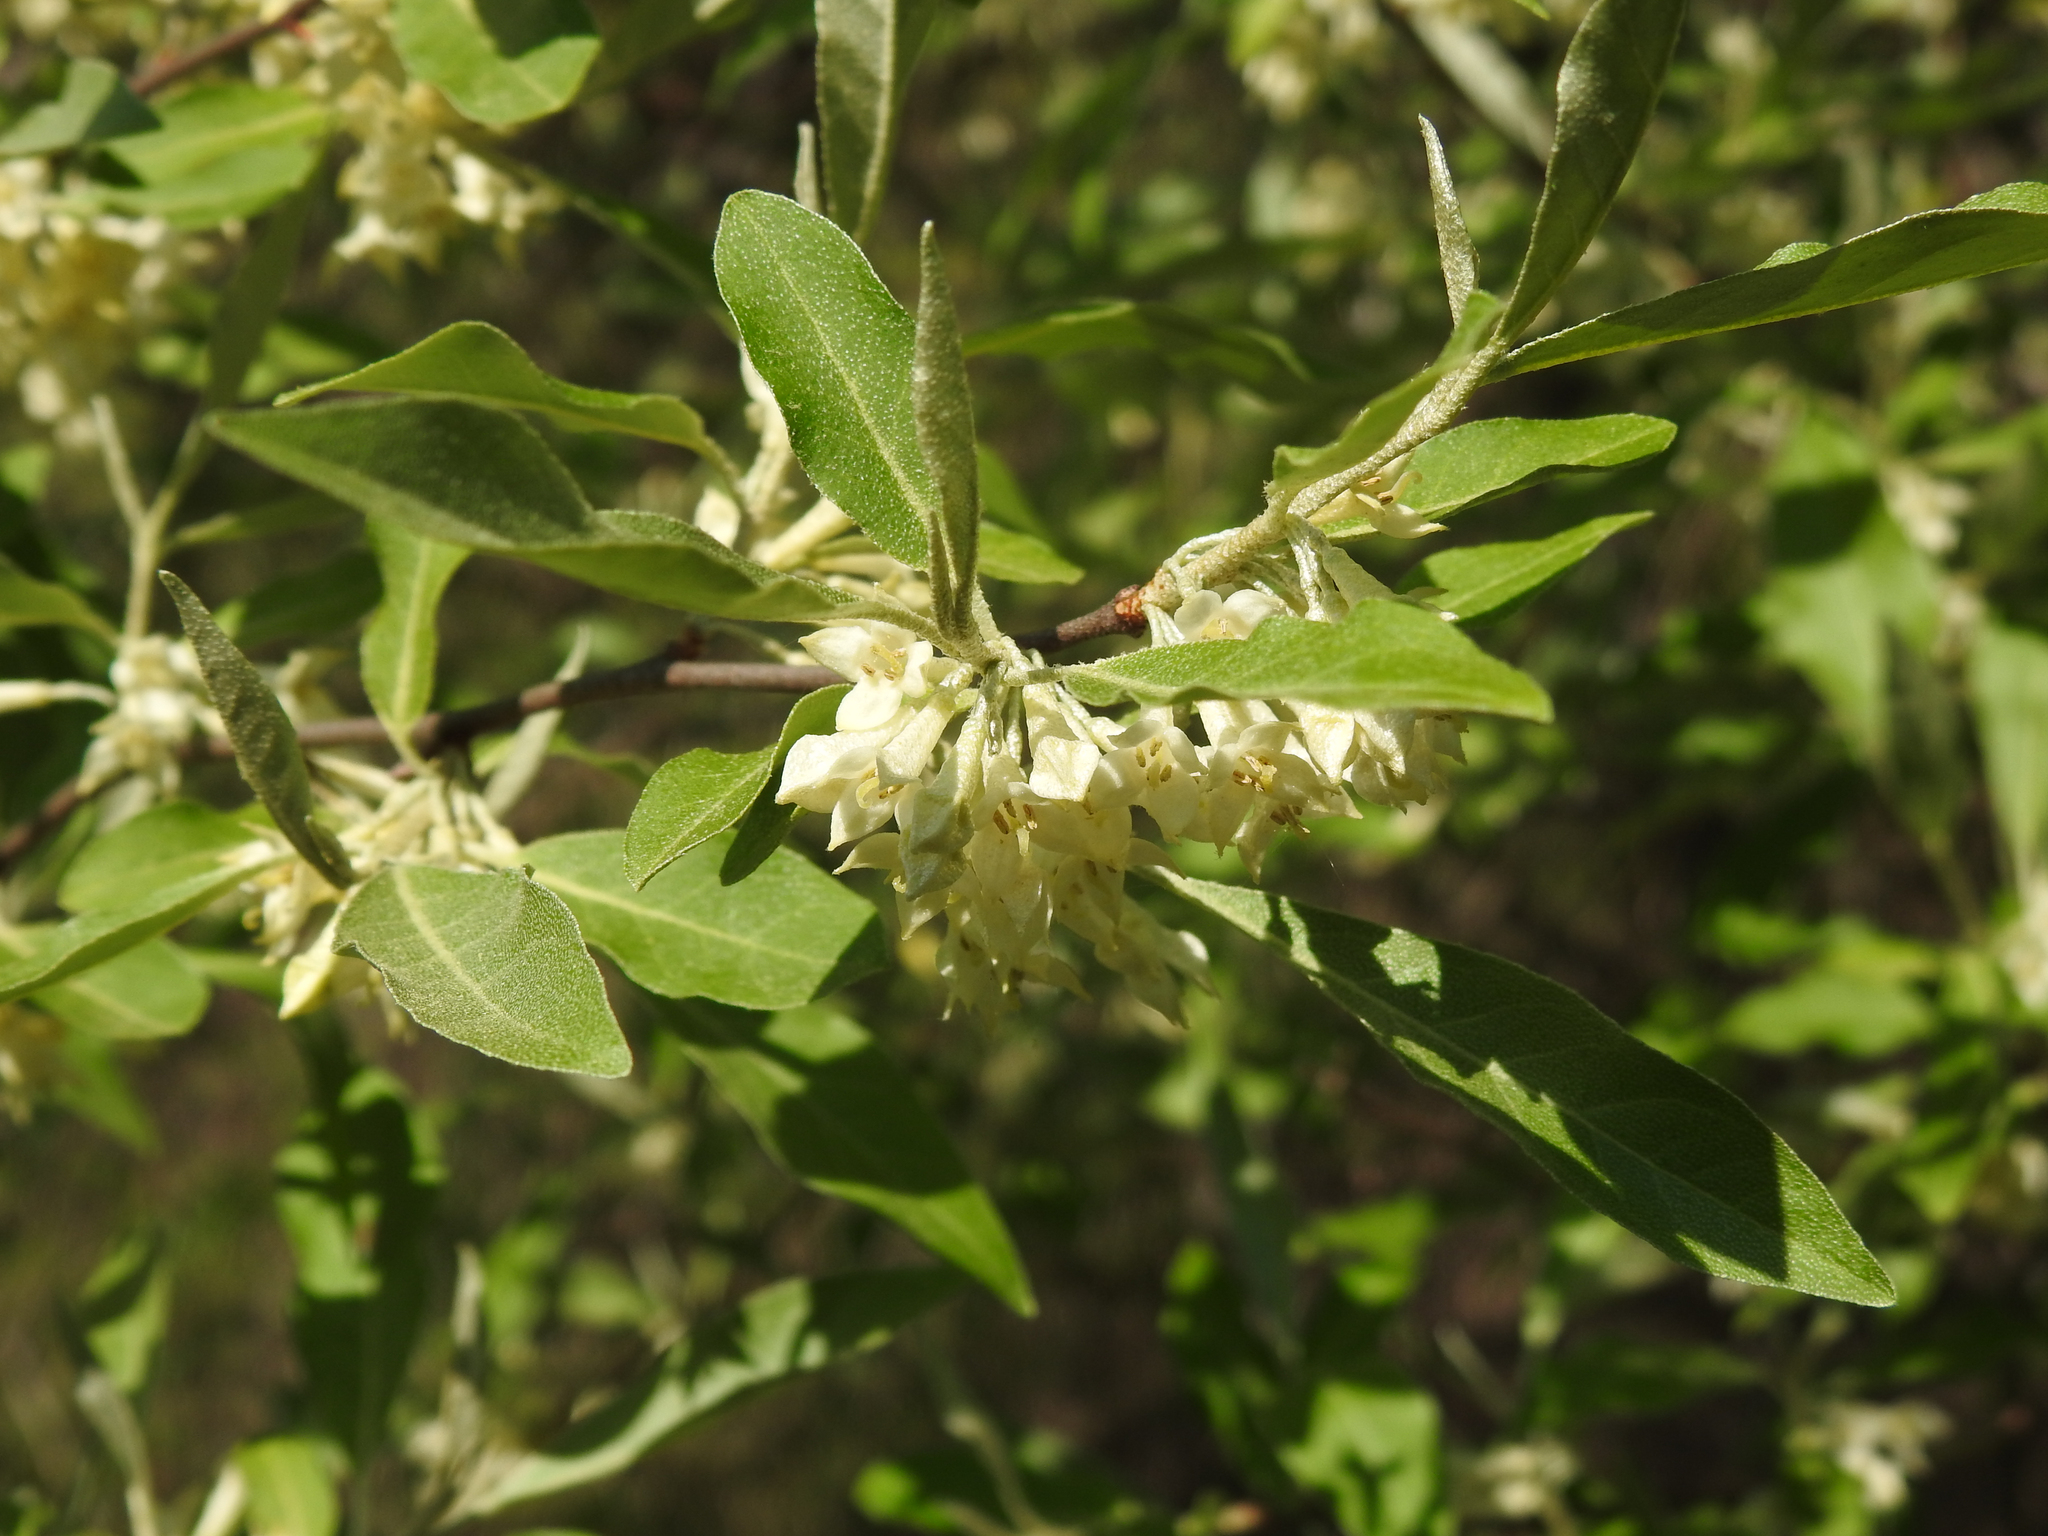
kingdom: Plantae
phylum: Tracheophyta
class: Magnoliopsida
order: Rosales
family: Elaeagnaceae
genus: Elaeagnus
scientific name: Elaeagnus umbellata
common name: Autumn olive
